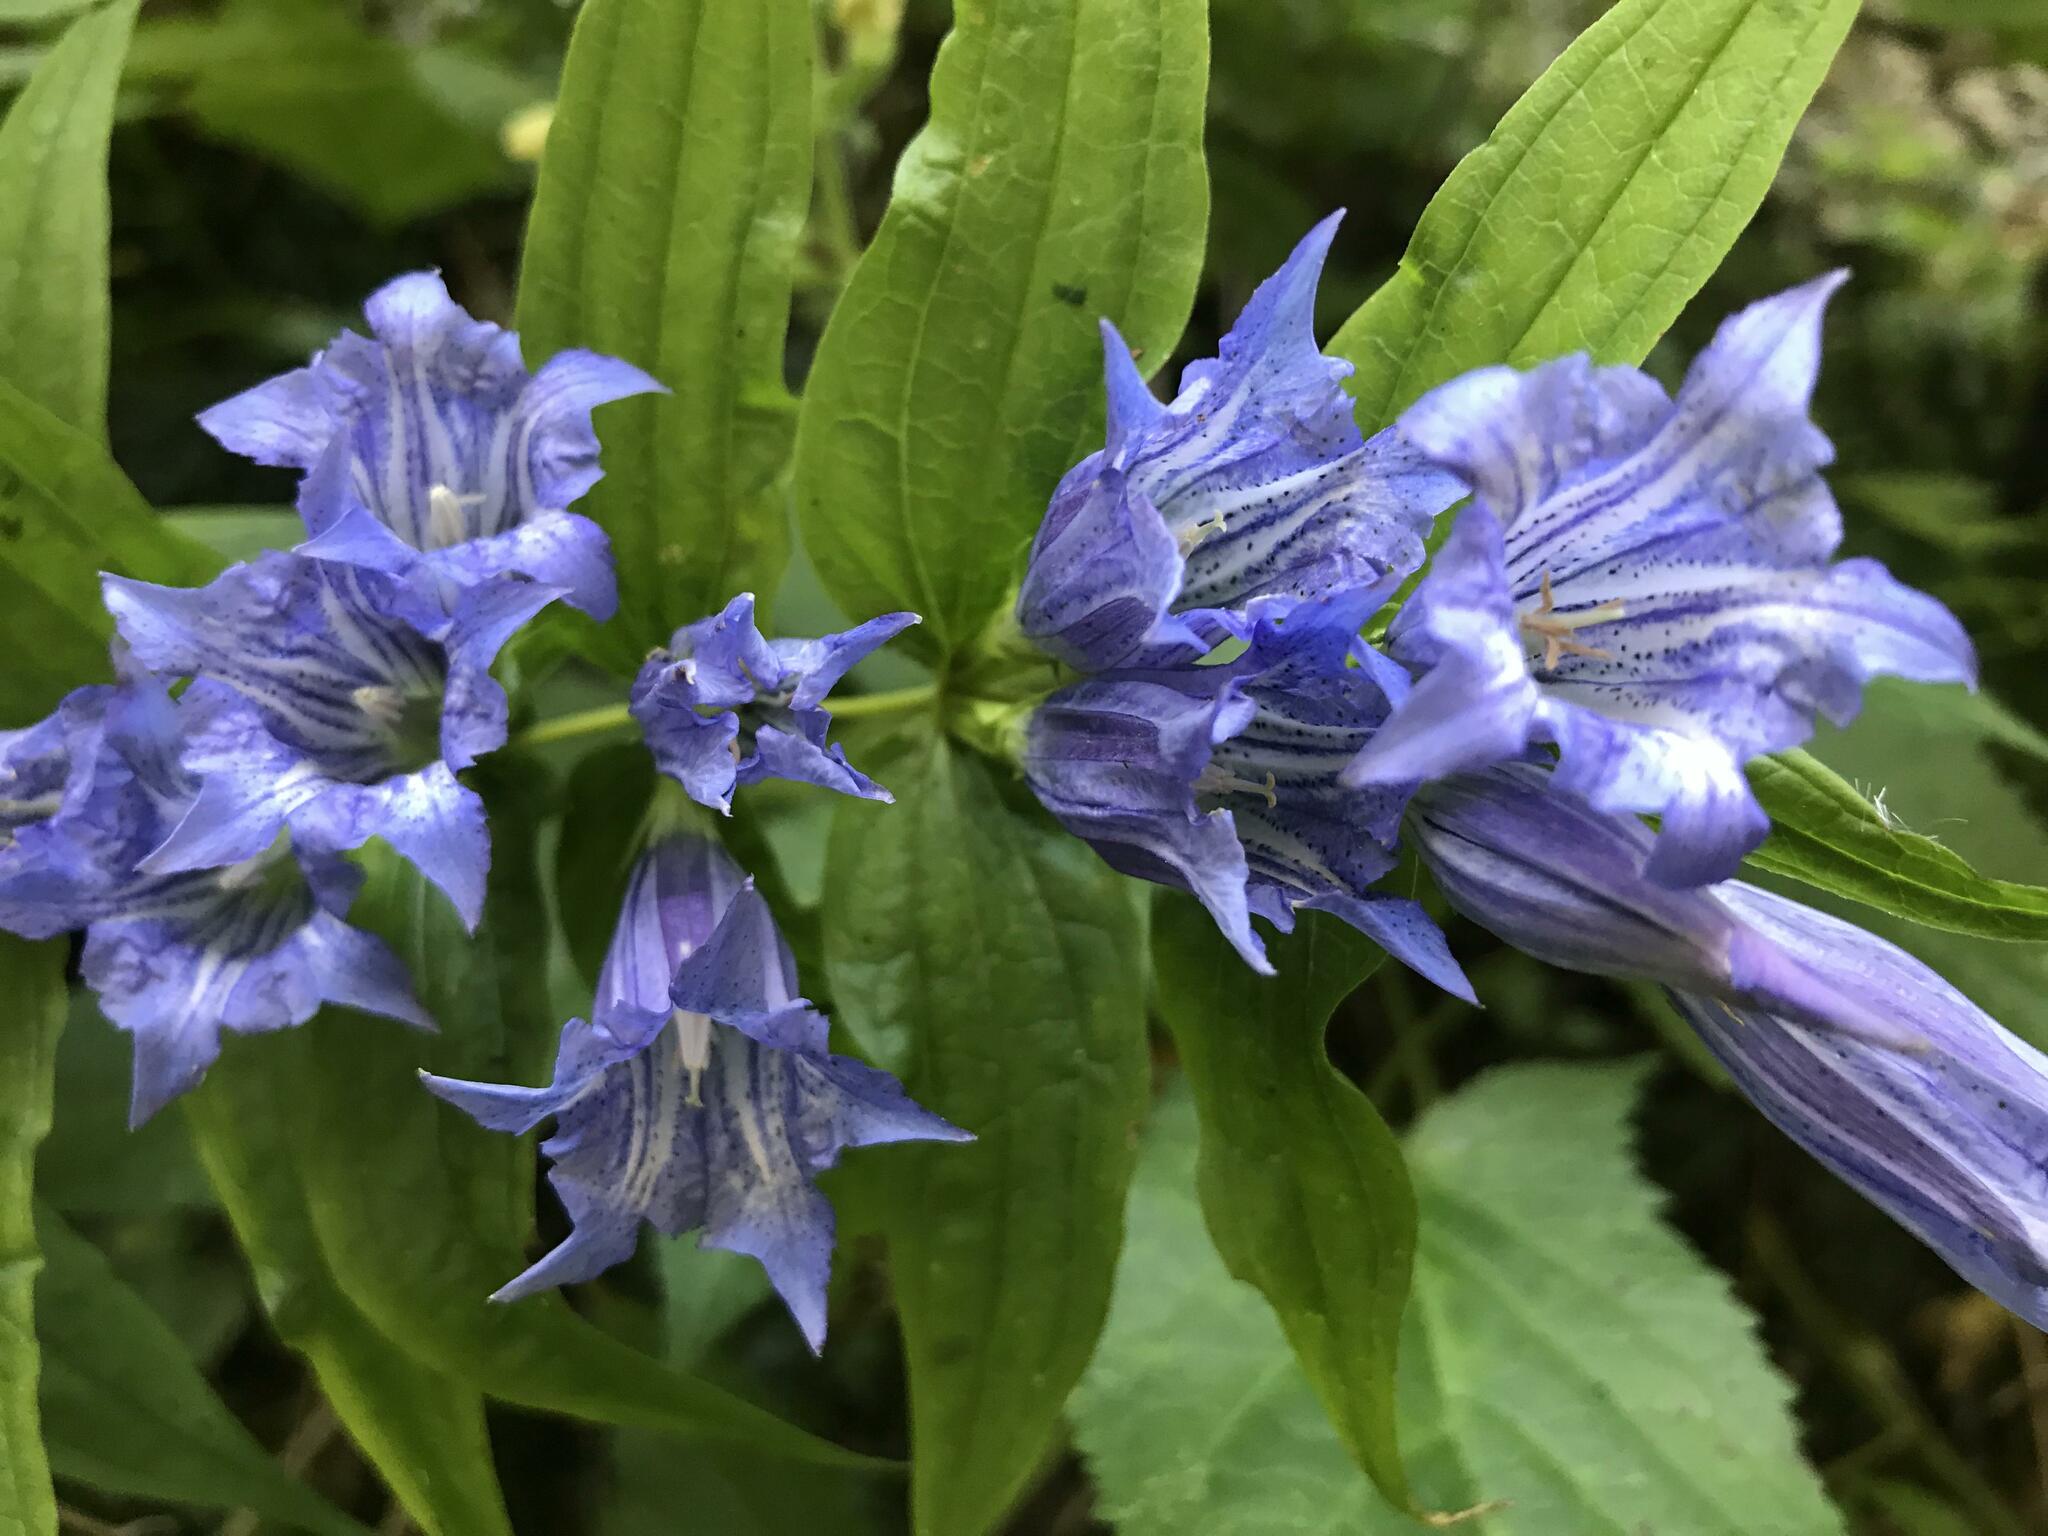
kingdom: Plantae
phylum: Tracheophyta
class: Magnoliopsida
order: Gentianales
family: Gentianaceae
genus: Gentiana
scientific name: Gentiana asclepiadea
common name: Willow gentian
